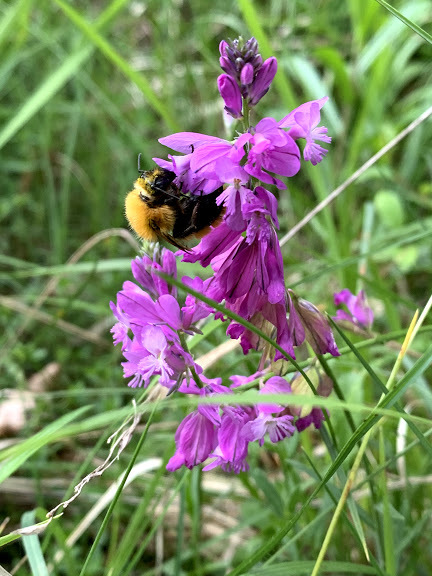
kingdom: Animalia
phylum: Arthropoda
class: Insecta
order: Hymenoptera
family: Apidae
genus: Bombus
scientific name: Bombus pascuorum
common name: Common carder bee
